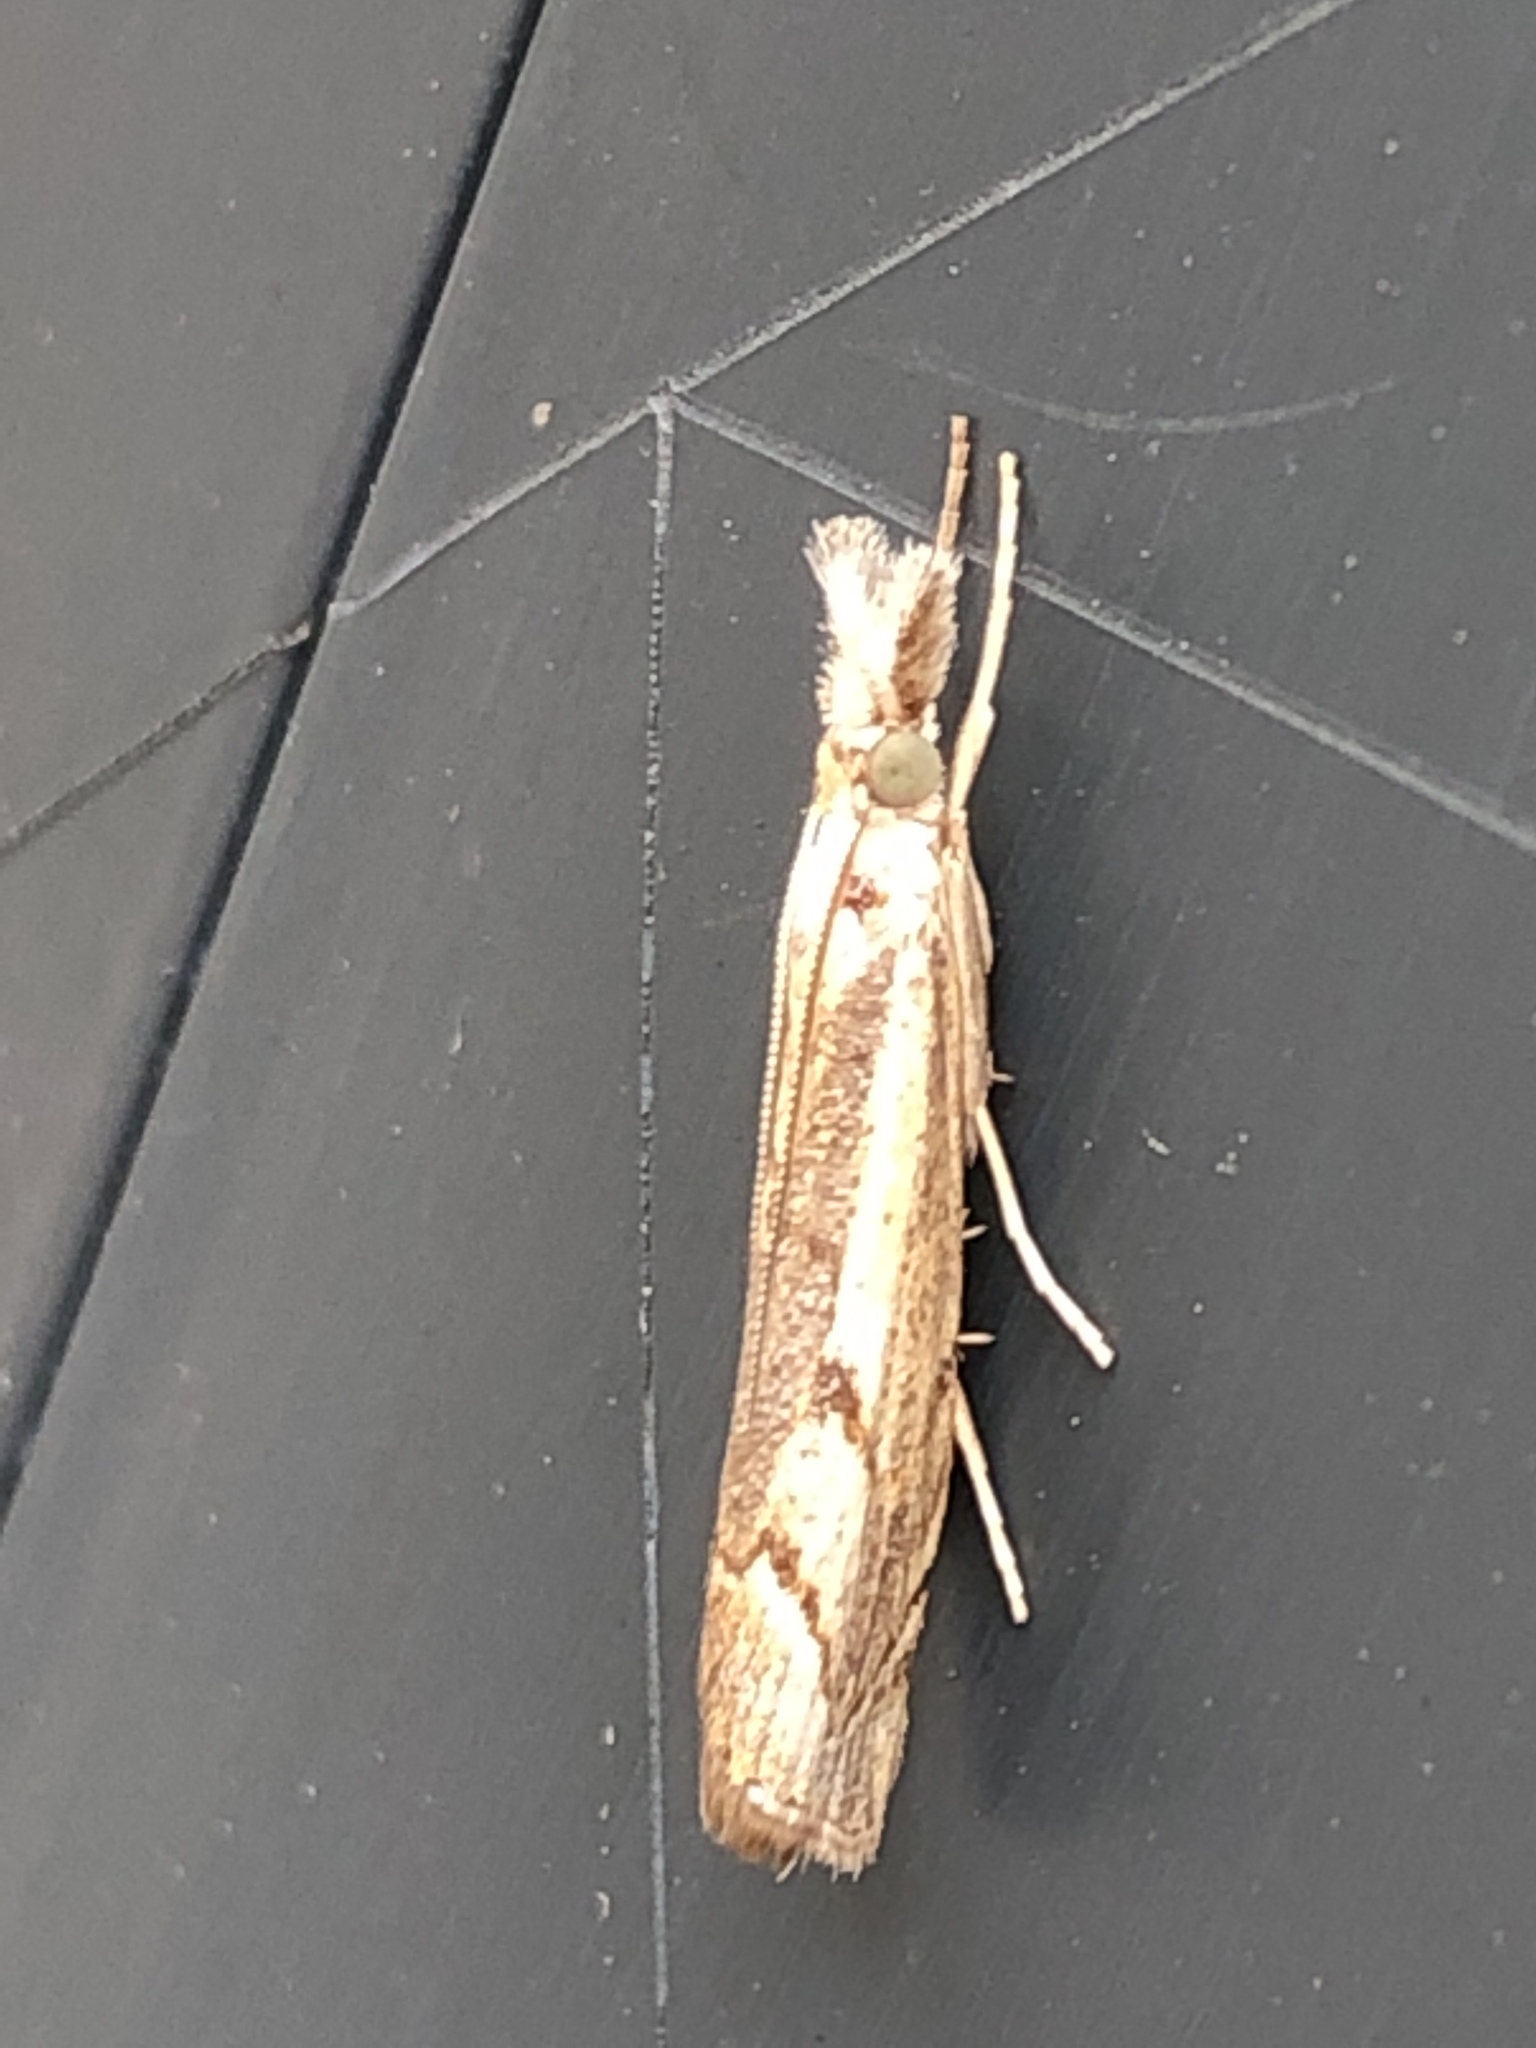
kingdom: Animalia
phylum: Arthropoda
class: Insecta
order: Lepidoptera
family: Crambidae
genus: Agriphila
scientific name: Agriphila geniculea
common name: Elbow-stripe grass-veneer
